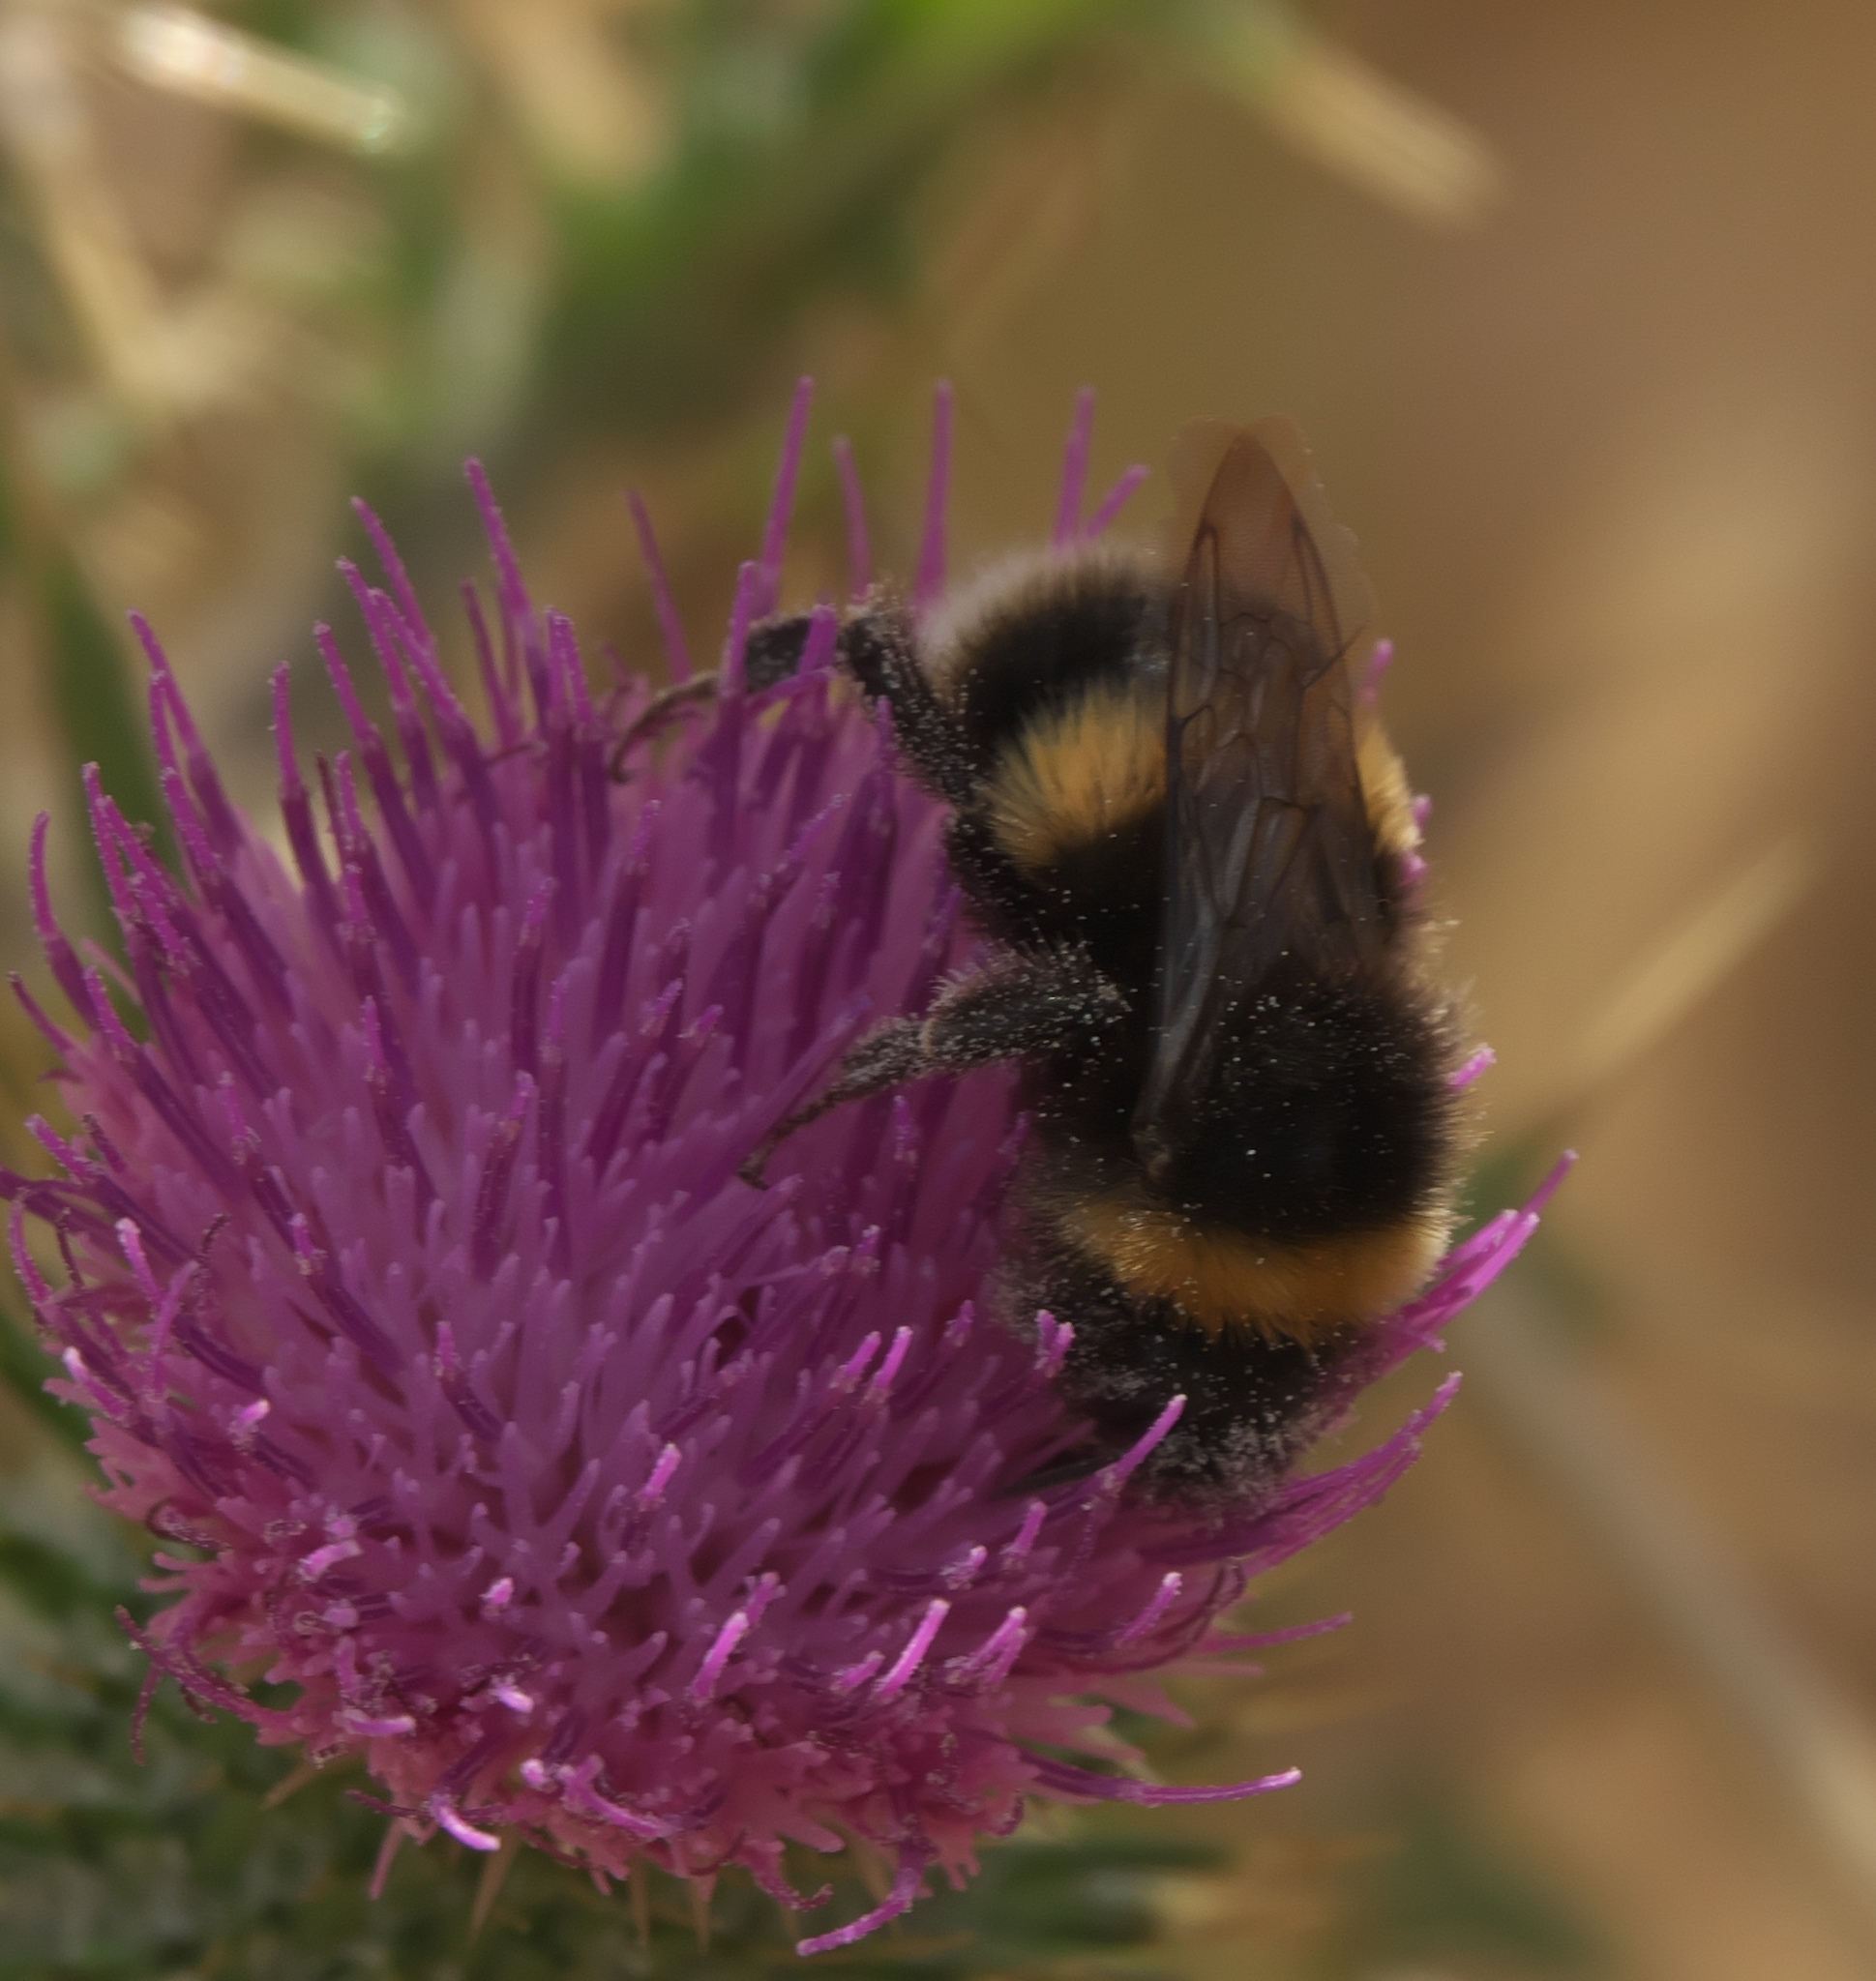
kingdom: Animalia
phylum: Arthropoda
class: Insecta
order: Hymenoptera
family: Apidae
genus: Bombus
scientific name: Bombus terrestris
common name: Buff-tailed bumblebee
